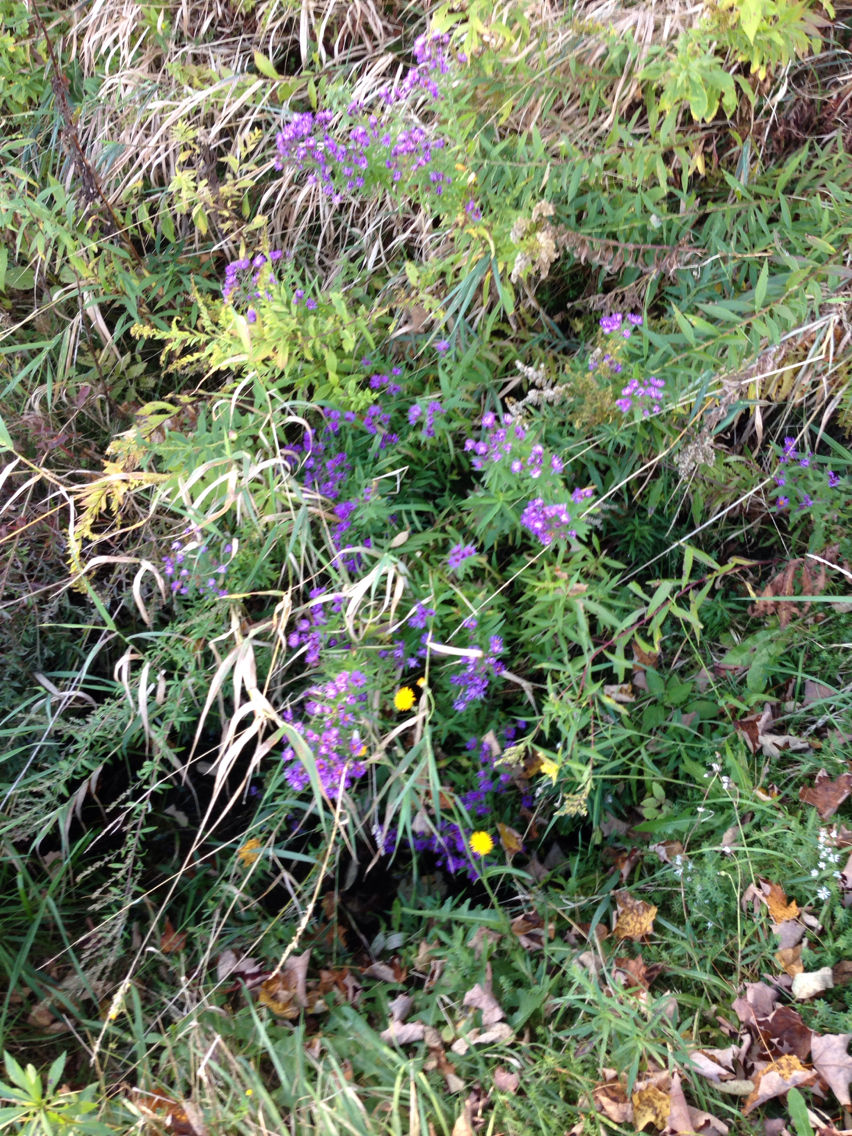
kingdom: Plantae
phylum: Tracheophyta
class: Magnoliopsida
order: Asterales
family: Asteraceae
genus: Symphyotrichum
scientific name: Symphyotrichum novae-angliae
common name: Michaelmas daisy
